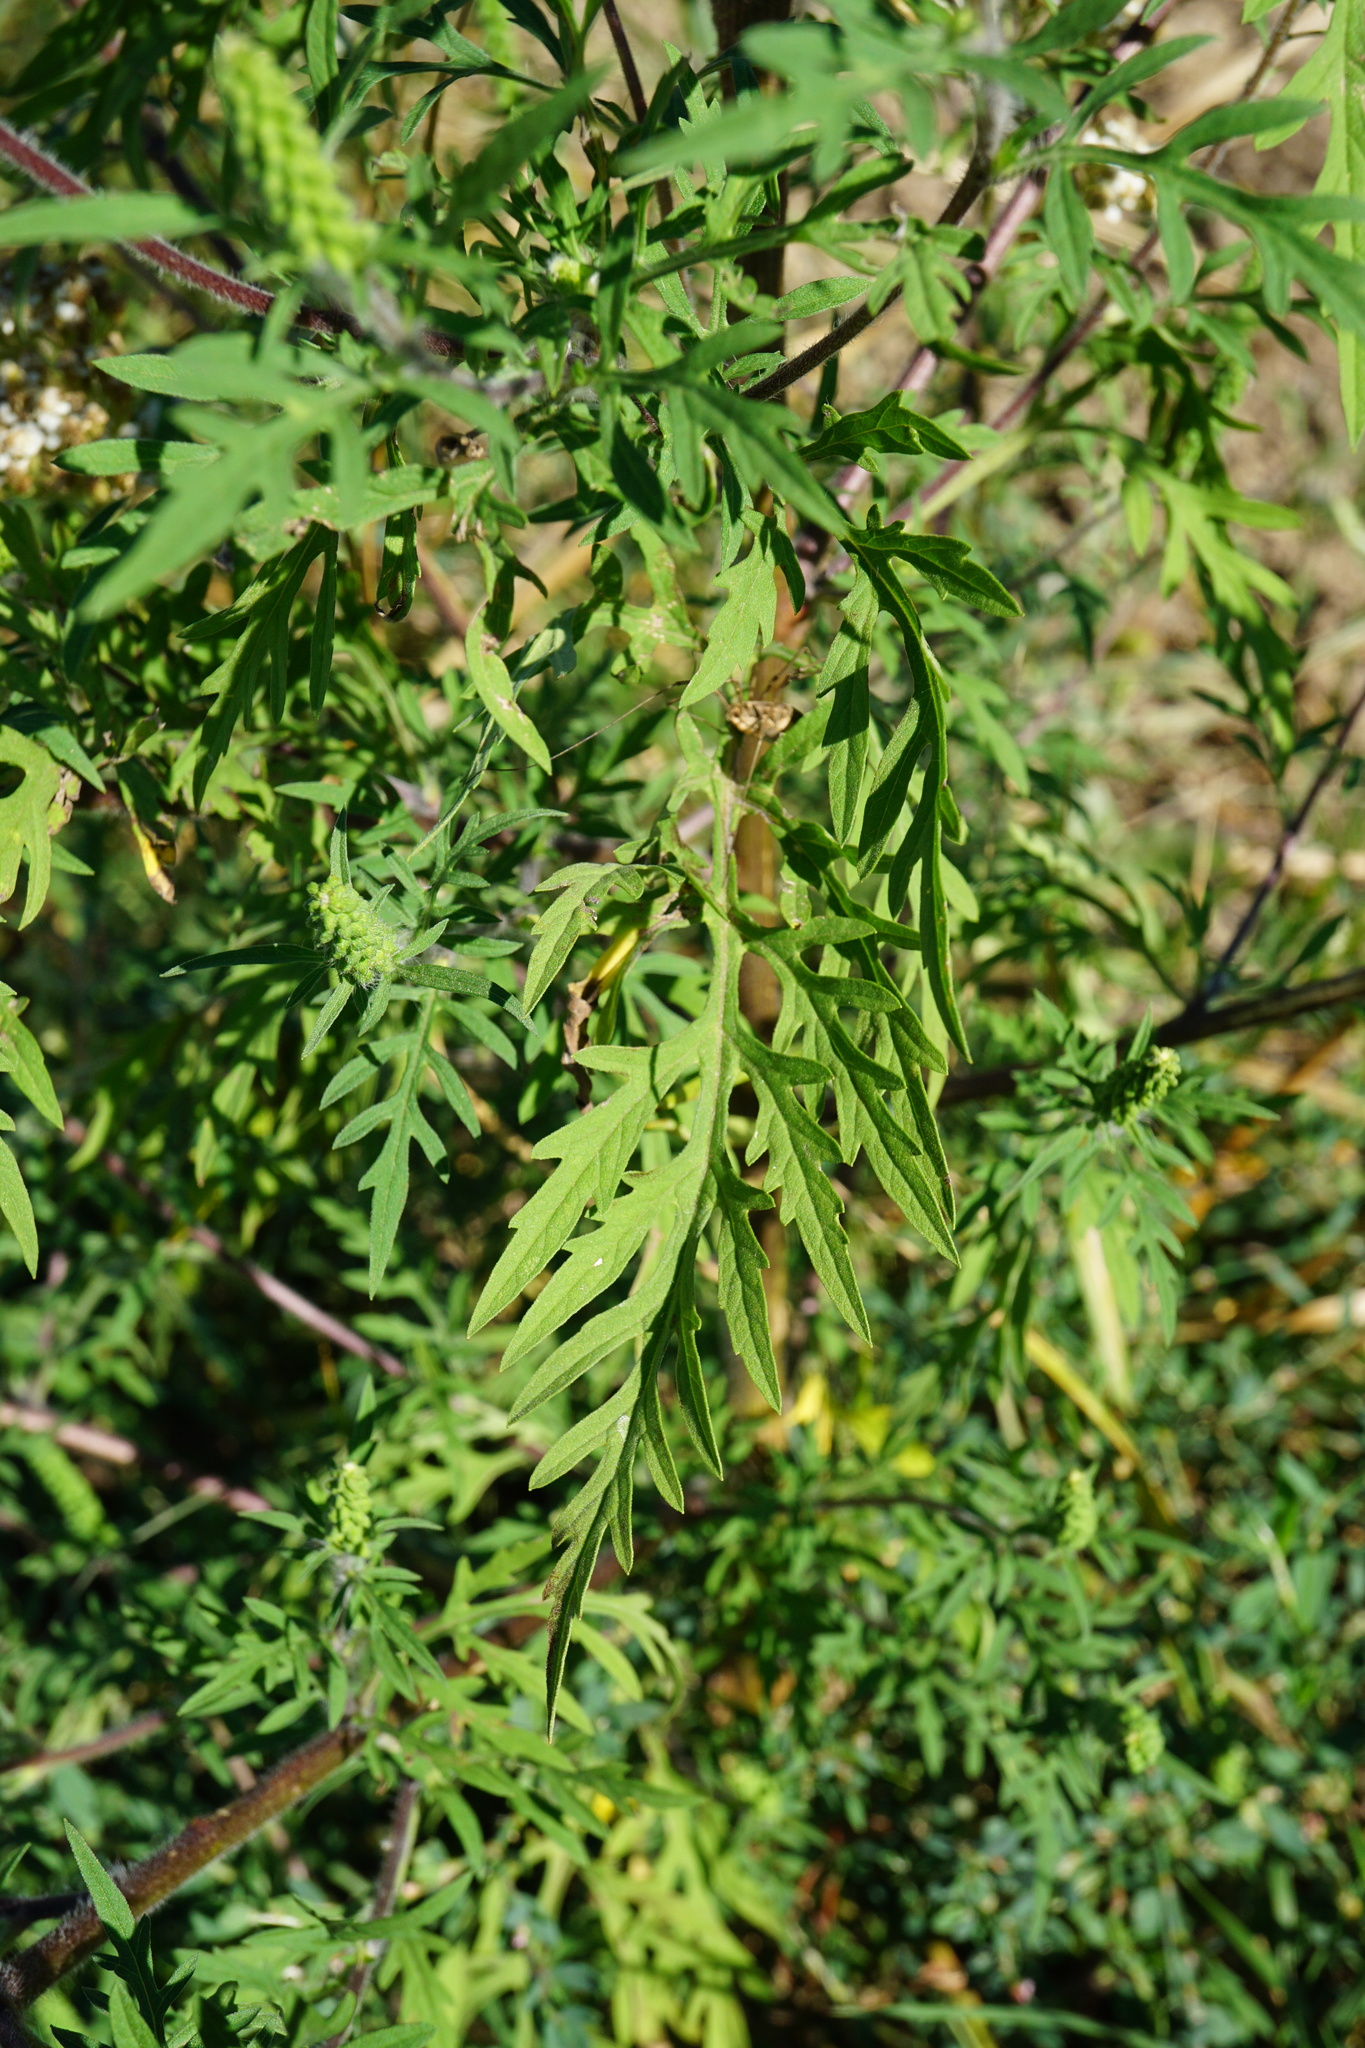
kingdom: Plantae
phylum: Tracheophyta
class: Magnoliopsida
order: Asterales
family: Asteraceae
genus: Ambrosia
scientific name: Ambrosia artemisiifolia
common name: Annual ragweed
